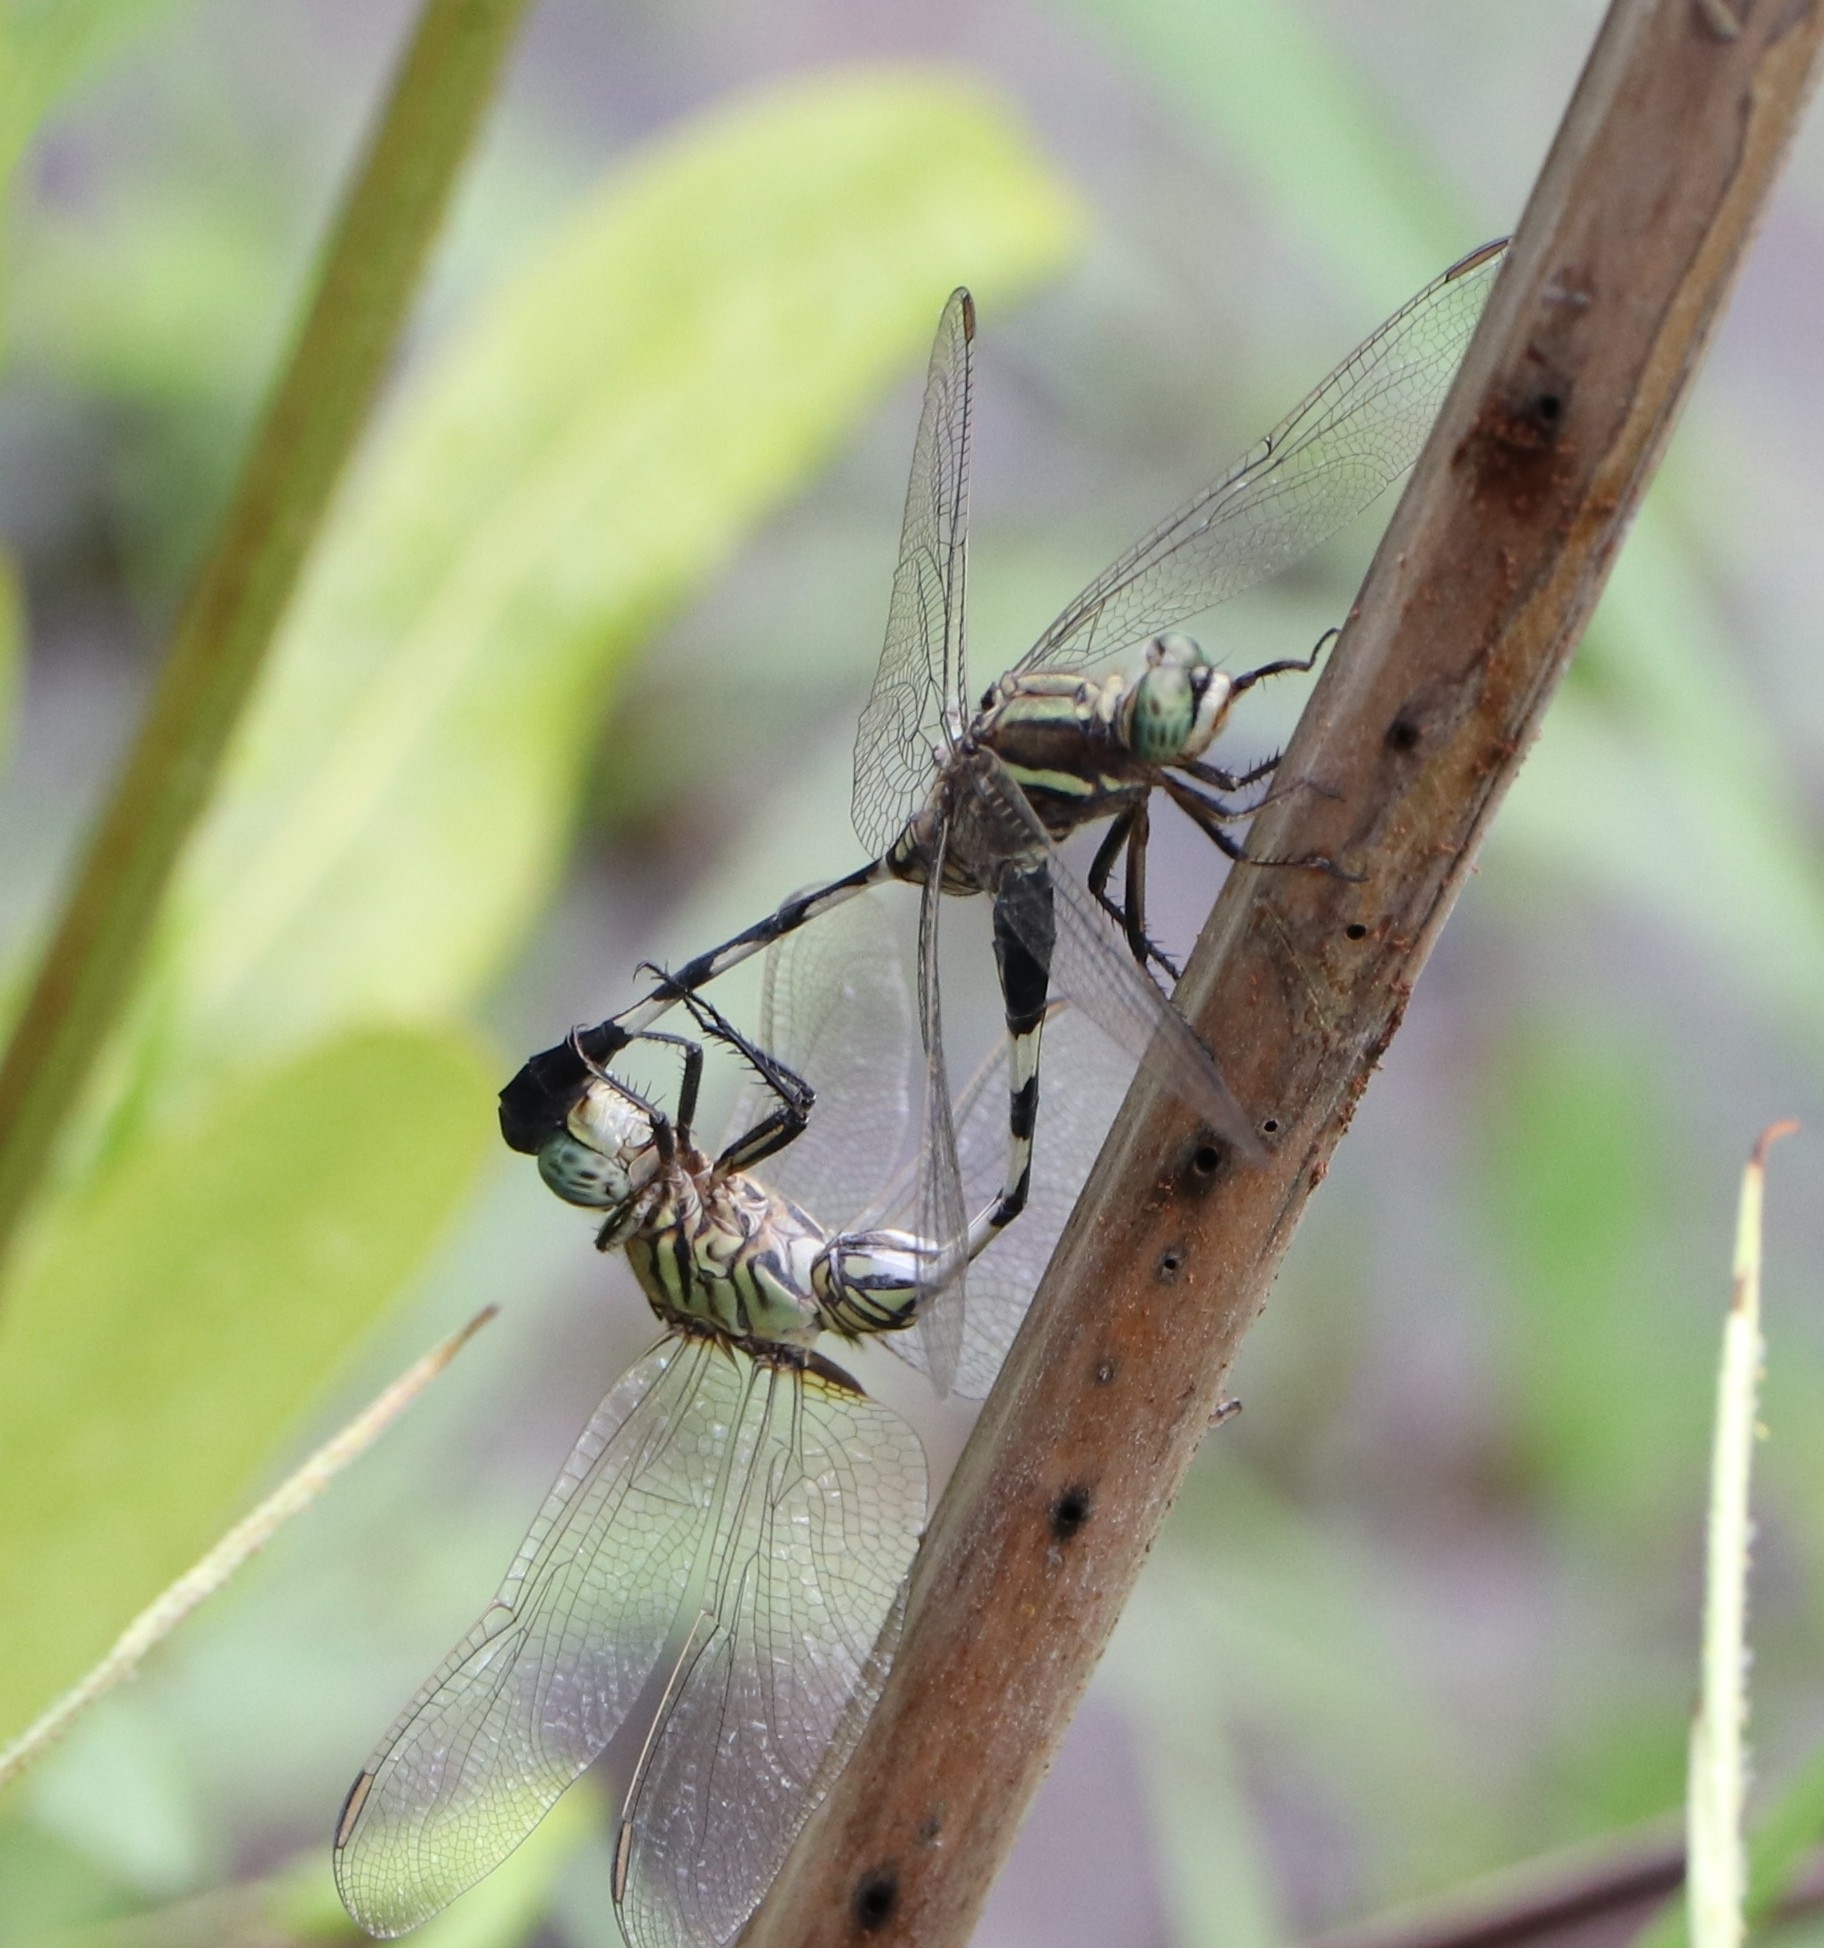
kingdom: Animalia
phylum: Arthropoda
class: Insecta
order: Odonata
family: Libellulidae
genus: Orthetrum
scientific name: Orthetrum sabina
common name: Slender skimmer
